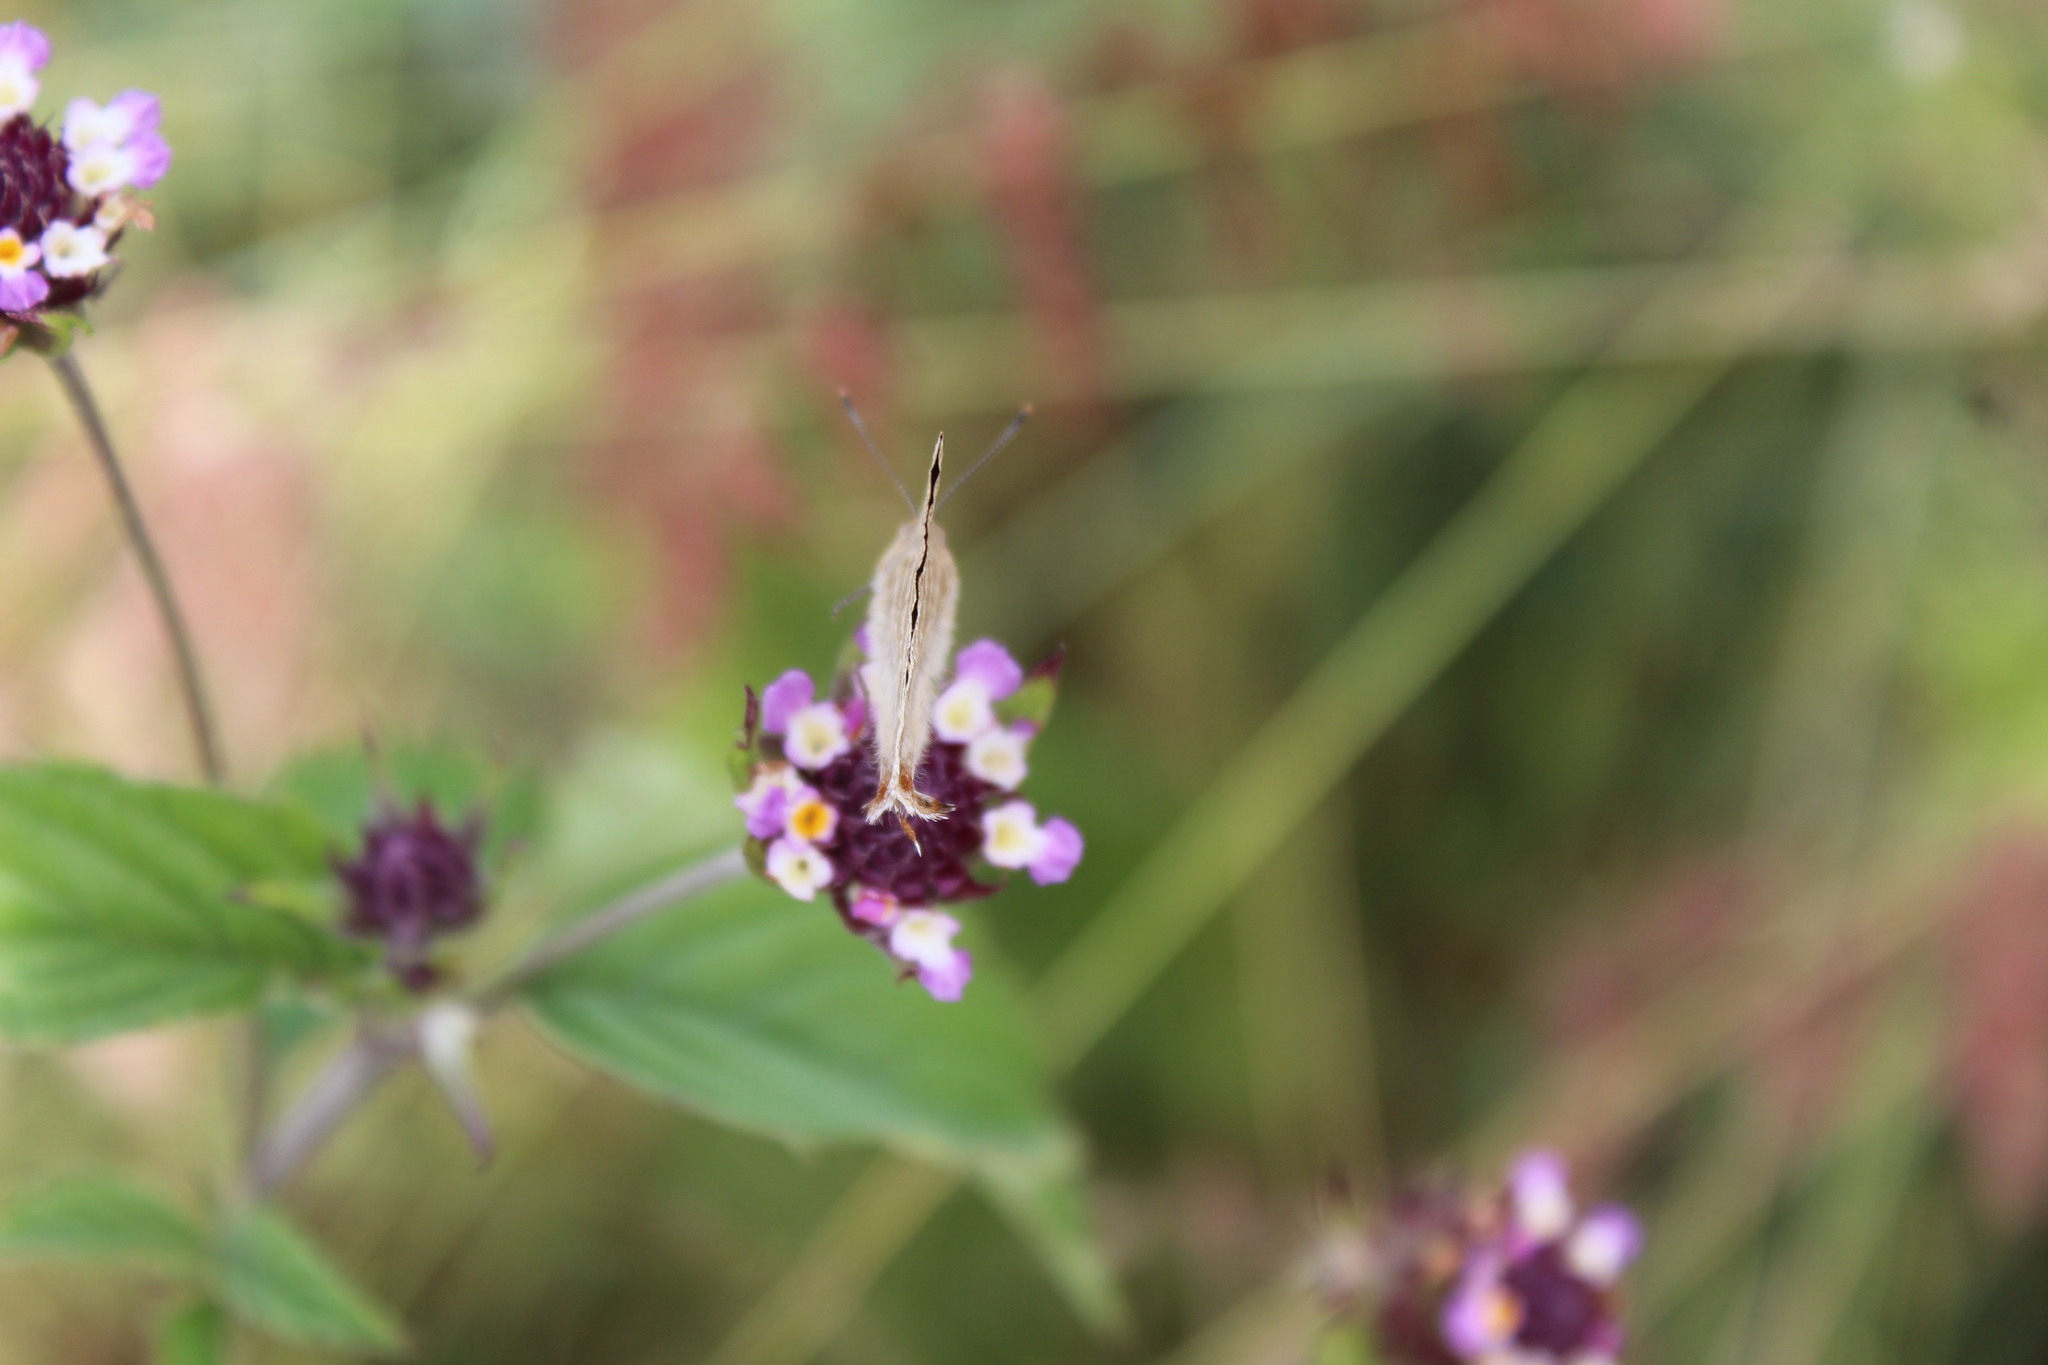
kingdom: Animalia
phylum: Arthropoda
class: Insecta
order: Lepidoptera
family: Lycaenidae
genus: Dolymorpha
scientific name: Dolymorpha jada
